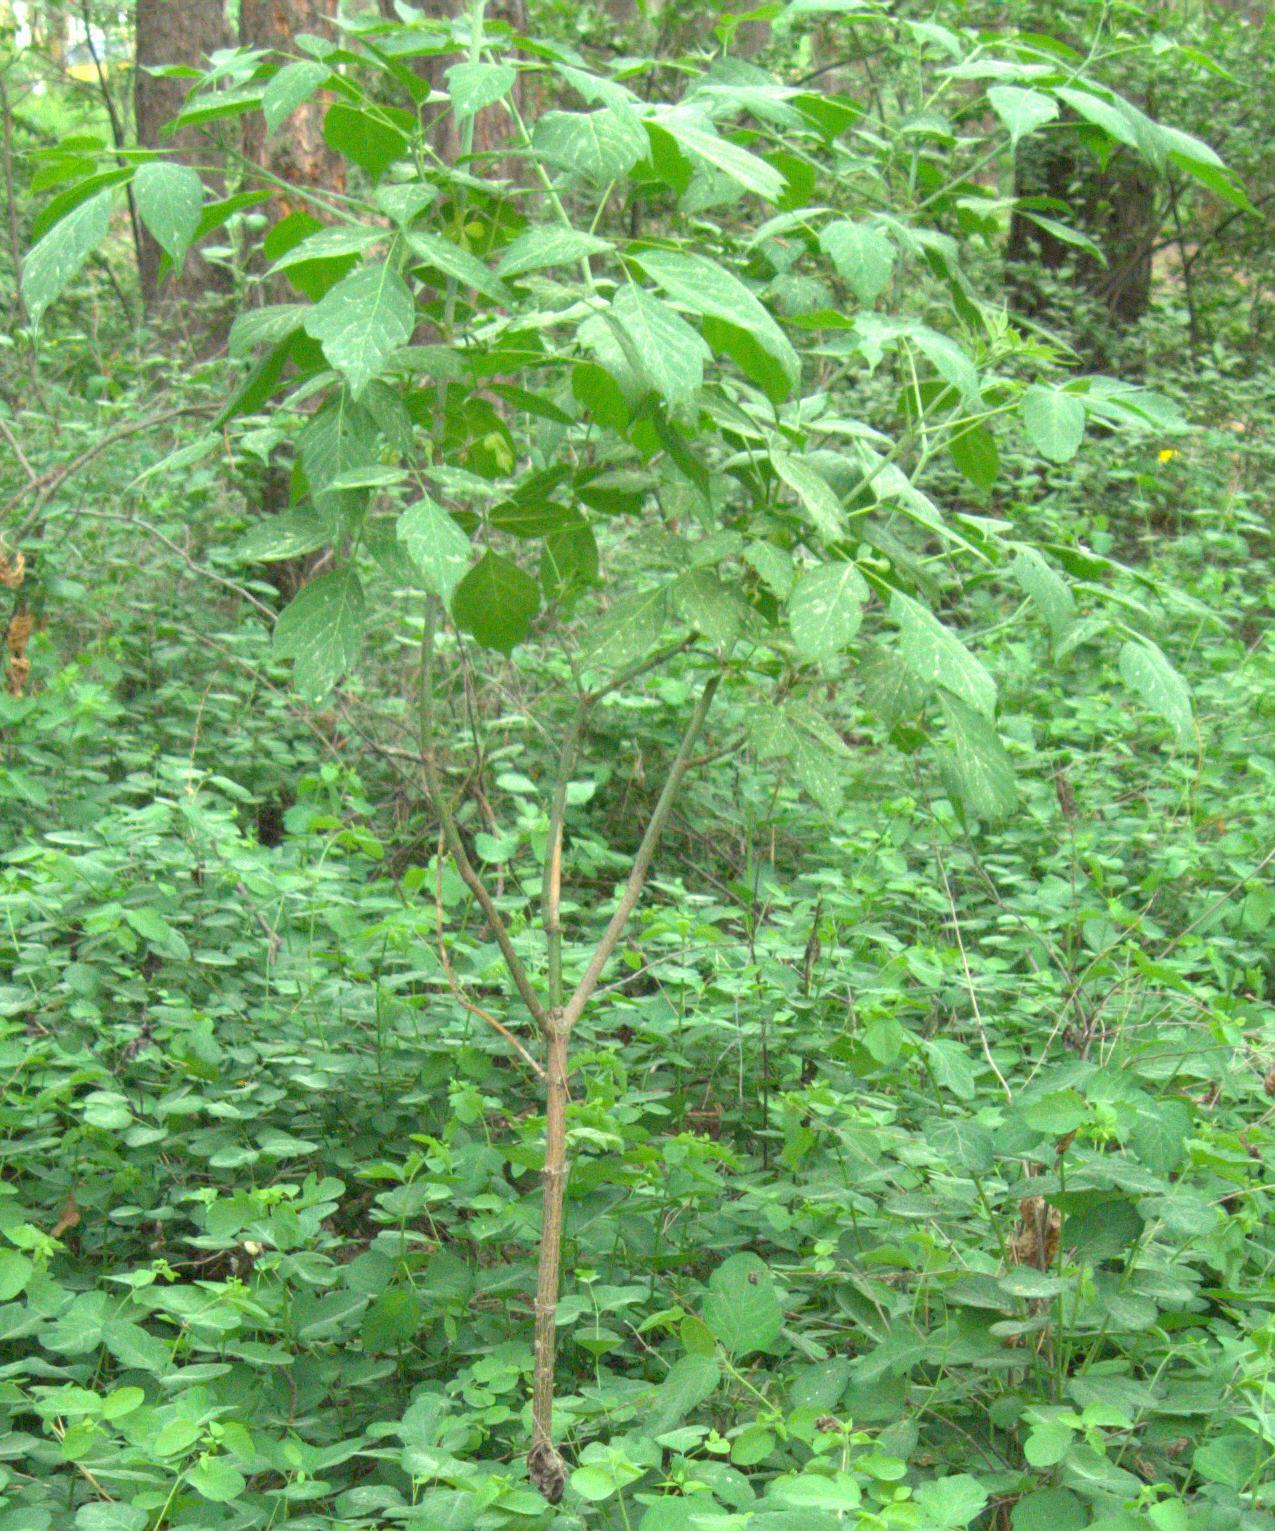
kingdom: Plantae
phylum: Tracheophyta
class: Magnoliopsida
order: Sapindales
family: Sapindaceae
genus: Acer
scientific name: Acer negundo
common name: Ashleaf maple
